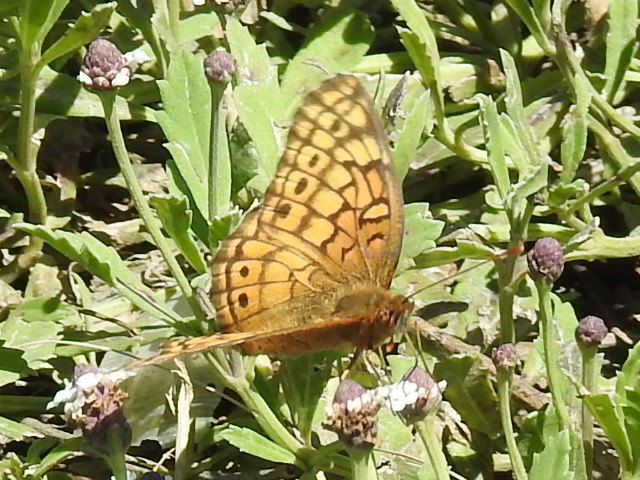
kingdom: Animalia
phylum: Arthropoda
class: Insecta
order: Lepidoptera
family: Nymphalidae
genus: Euptoieta
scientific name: Euptoieta claudia
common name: Variegated fritillary
